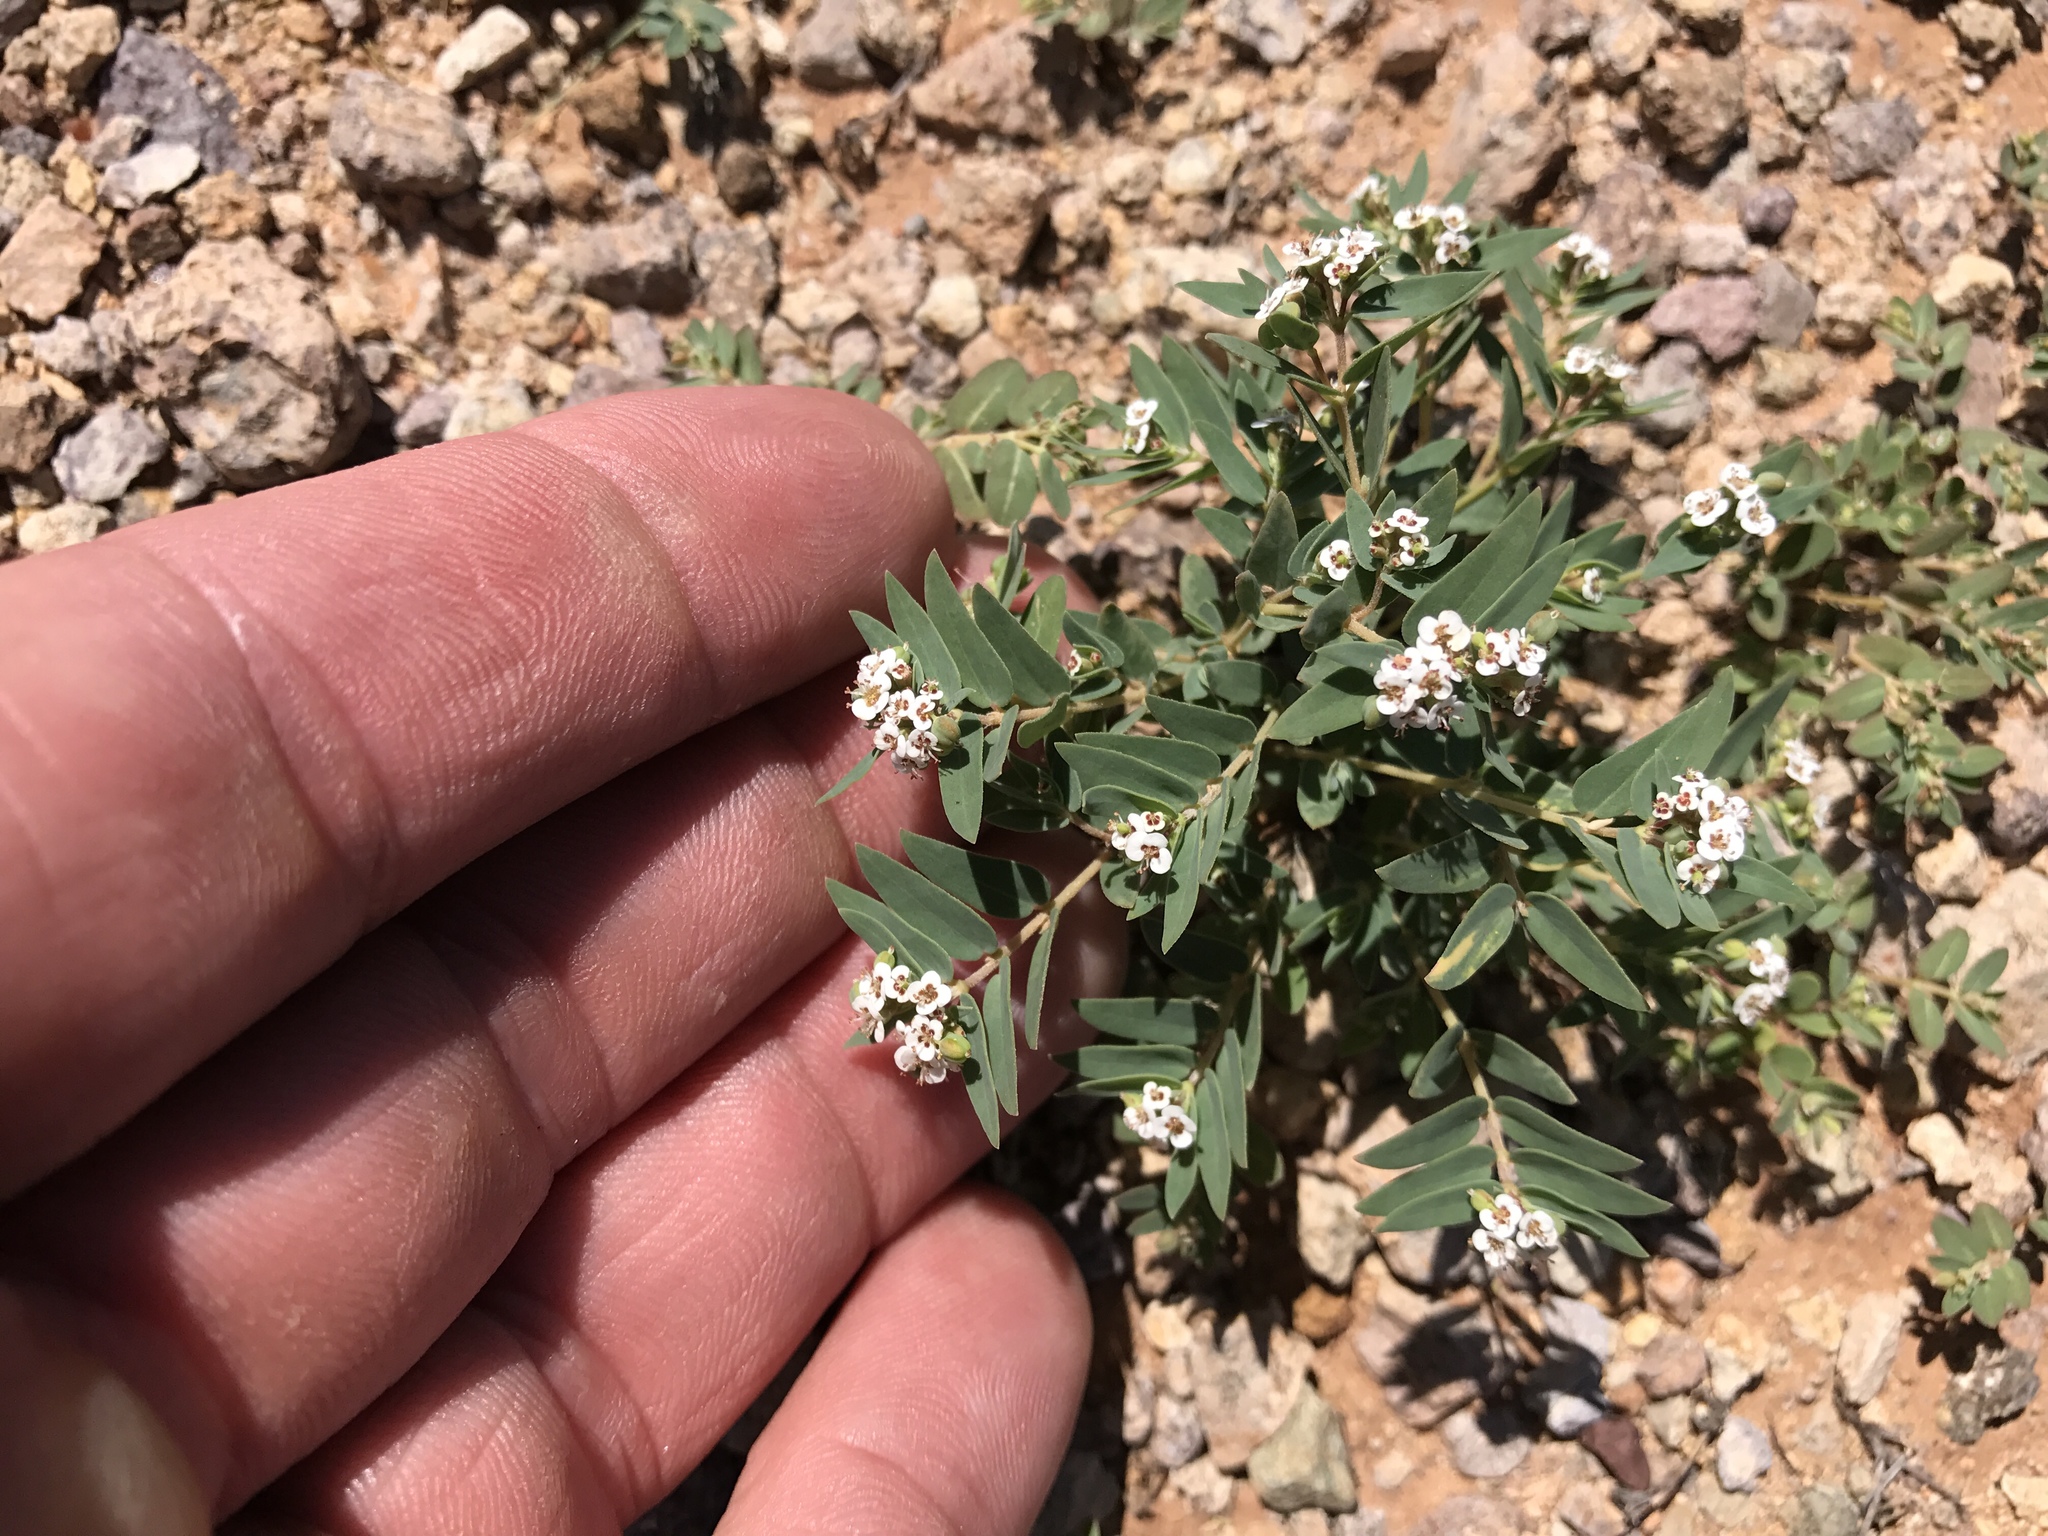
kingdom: Plantae
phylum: Tracheophyta
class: Magnoliopsida
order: Malpighiales
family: Euphorbiaceae
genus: Euphorbia
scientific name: Euphorbia capitellata
